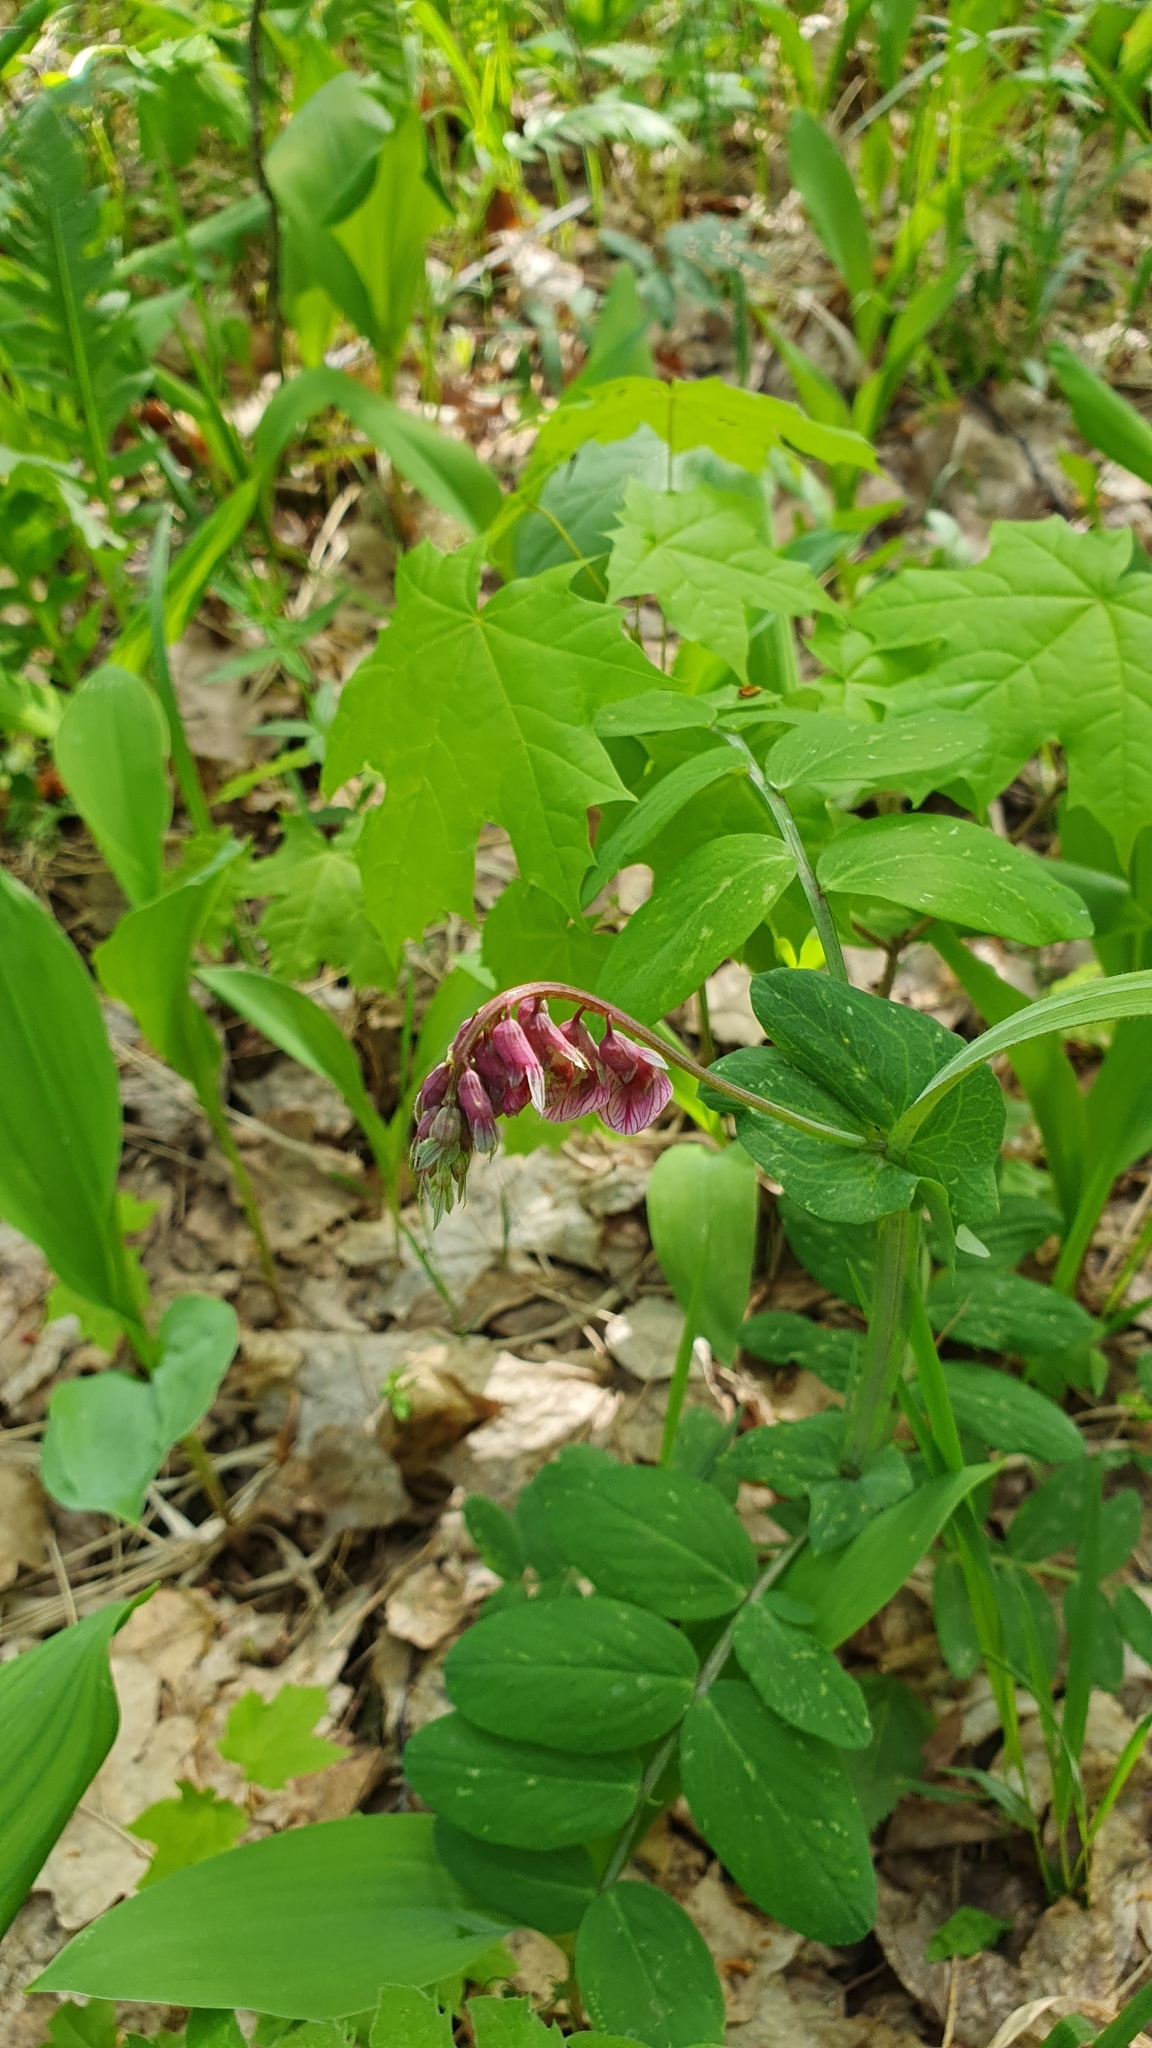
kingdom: Plantae
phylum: Tracheophyta
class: Magnoliopsida
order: Fabales
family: Fabaceae
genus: Lathyrus
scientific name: Lathyrus pisiformis
